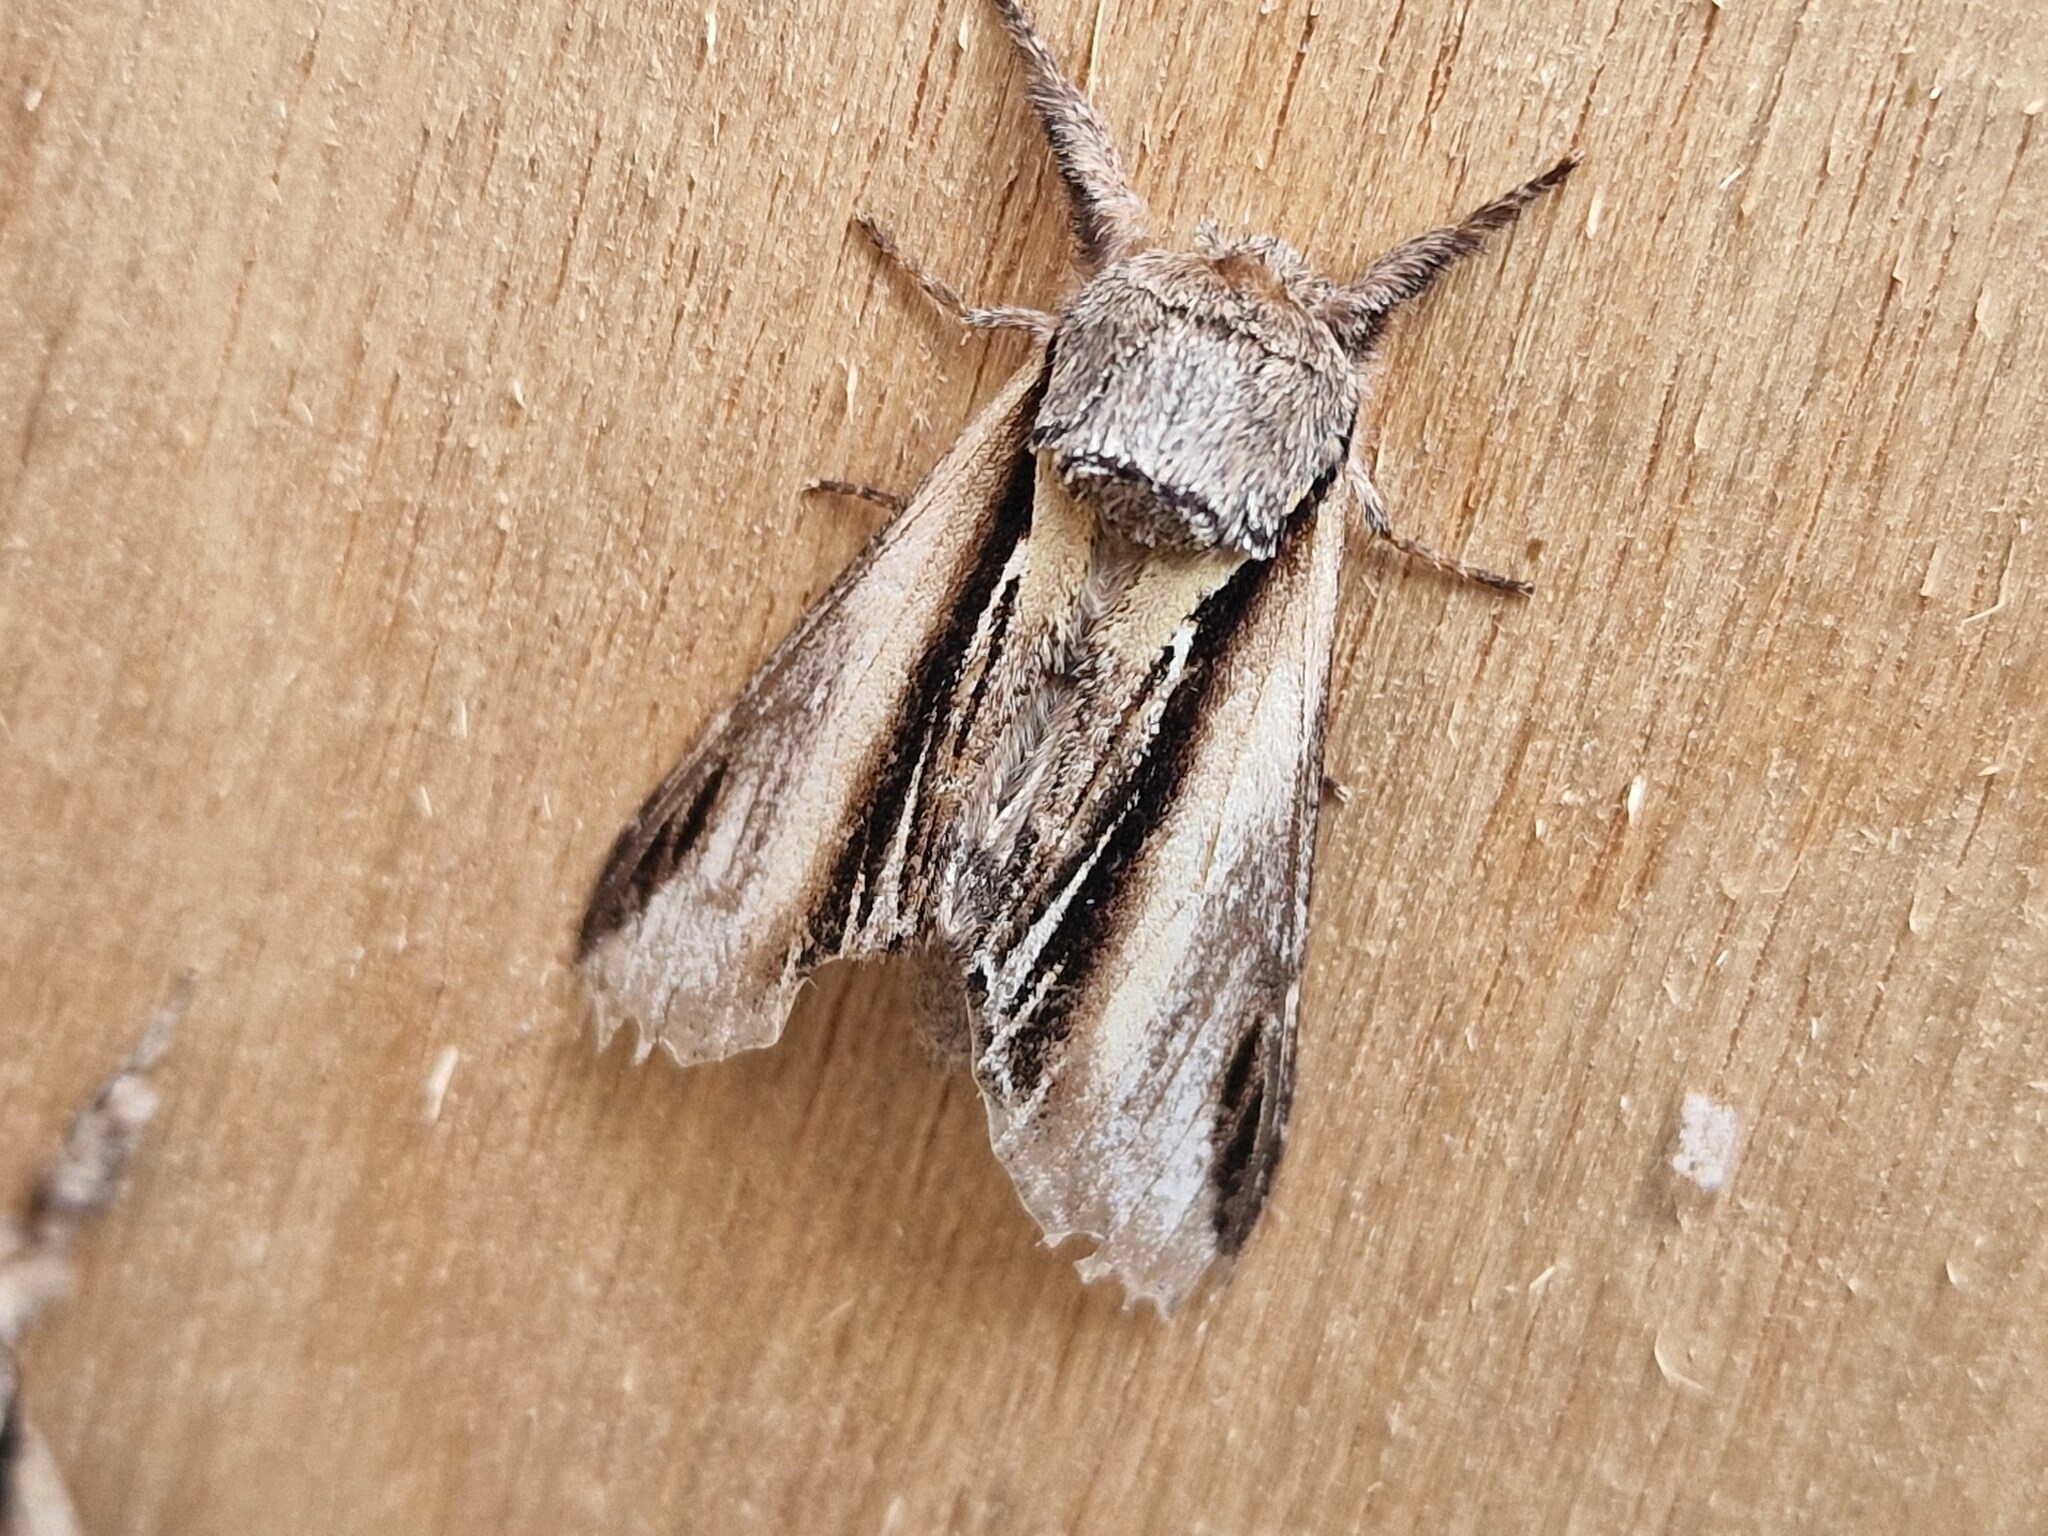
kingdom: Animalia
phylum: Arthropoda
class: Insecta
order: Lepidoptera
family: Notodontidae
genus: Pheosia
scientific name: Pheosia tremula
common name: Swallow prominent
